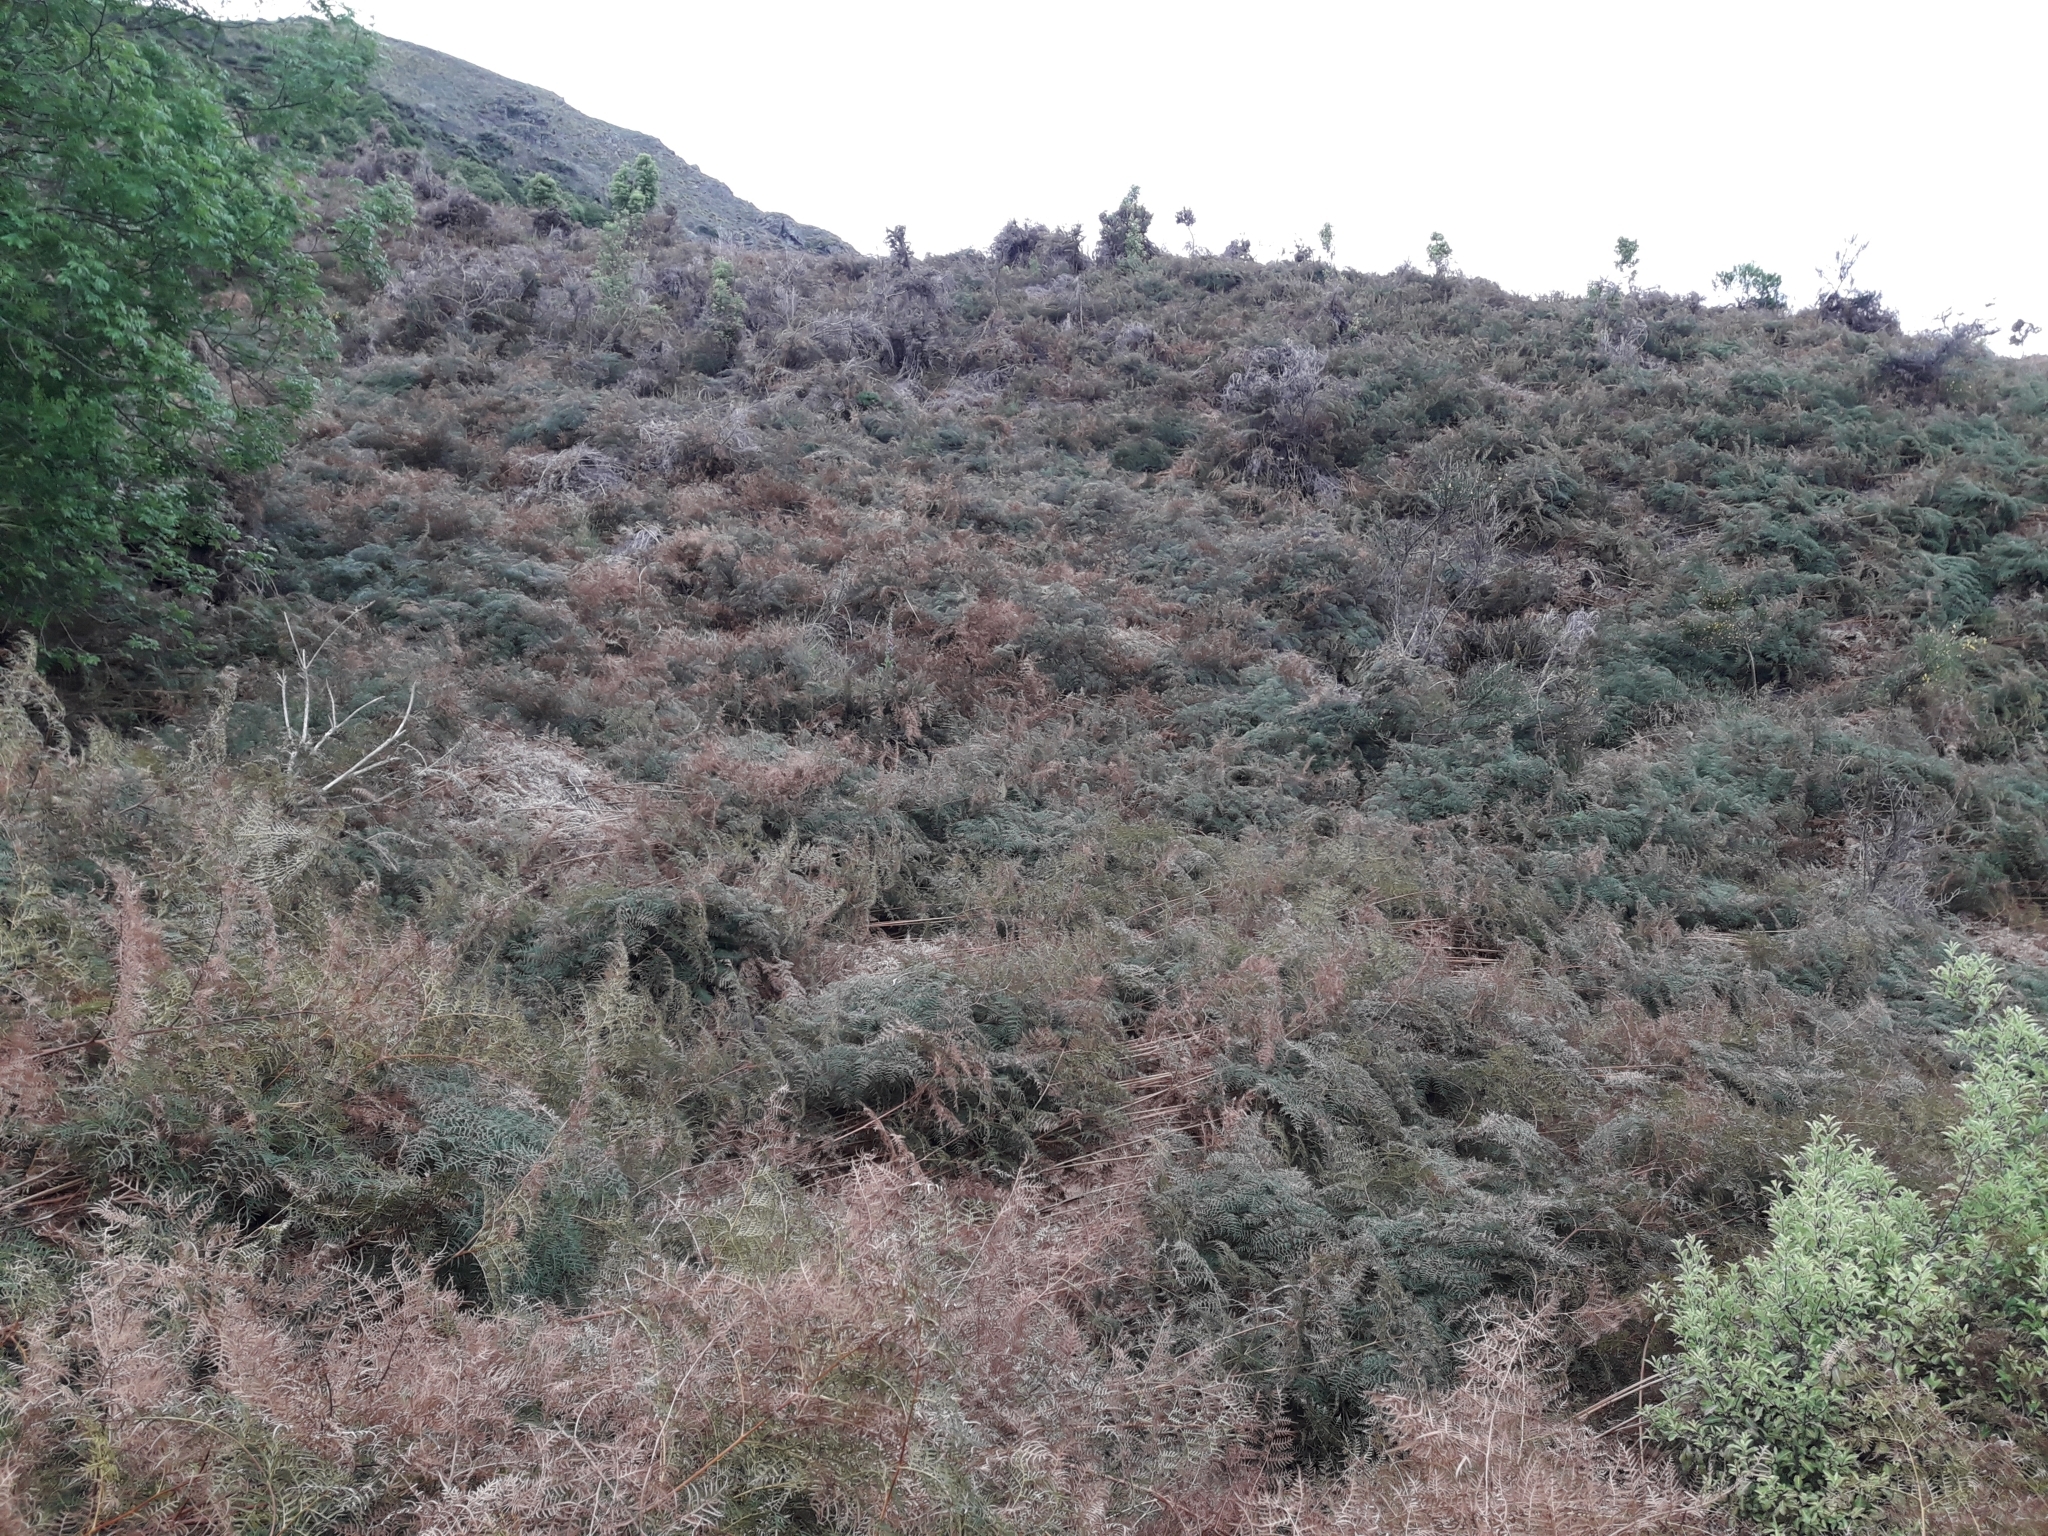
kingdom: Plantae
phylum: Tracheophyta
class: Polypodiopsida
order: Polypodiales
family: Dennstaedtiaceae
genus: Pteridium
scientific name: Pteridium esculentum
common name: Bracken fern
